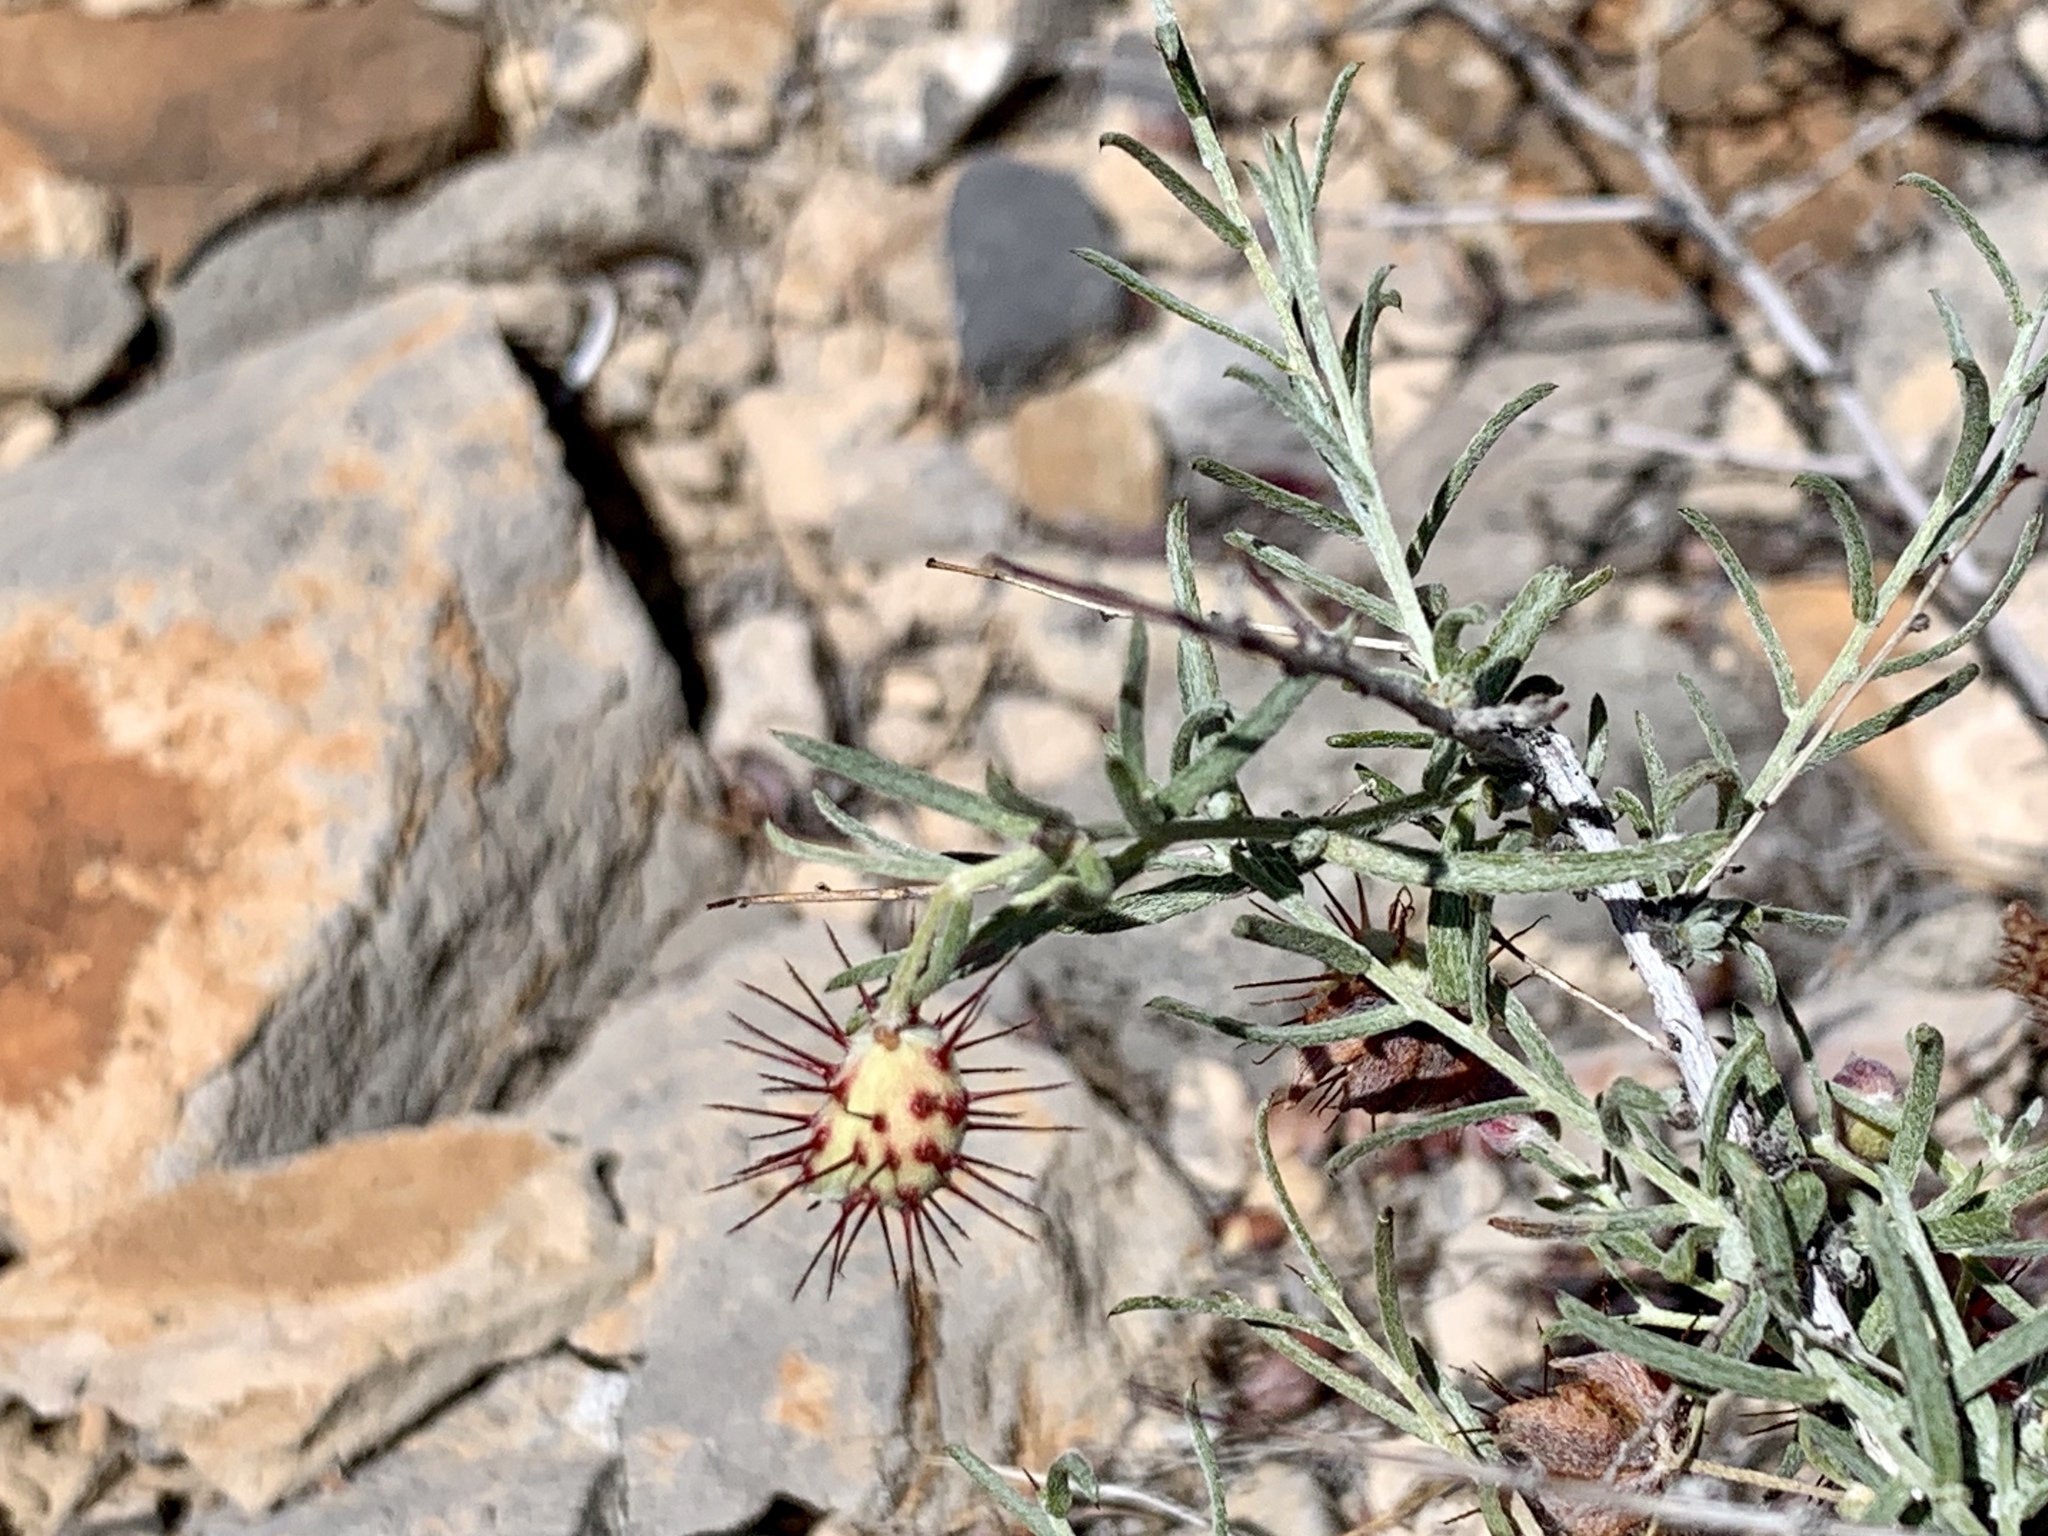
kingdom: Plantae
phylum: Tracheophyta
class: Magnoliopsida
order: Zygophyllales
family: Krameriaceae
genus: Krameria
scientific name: Krameria erecta
